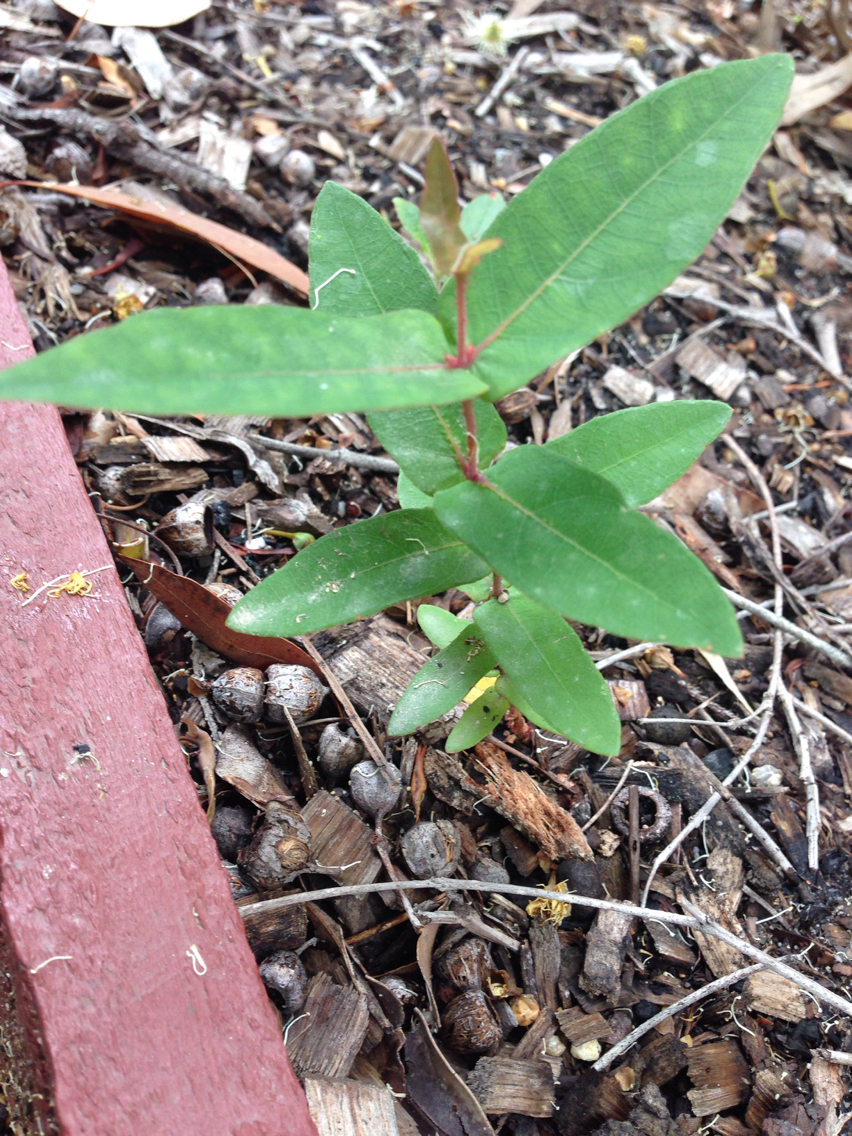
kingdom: Plantae
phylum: Tracheophyta
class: Magnoliopsida
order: Myrtales
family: Myrtaceae
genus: Angophora
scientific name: Angophora floribunda
